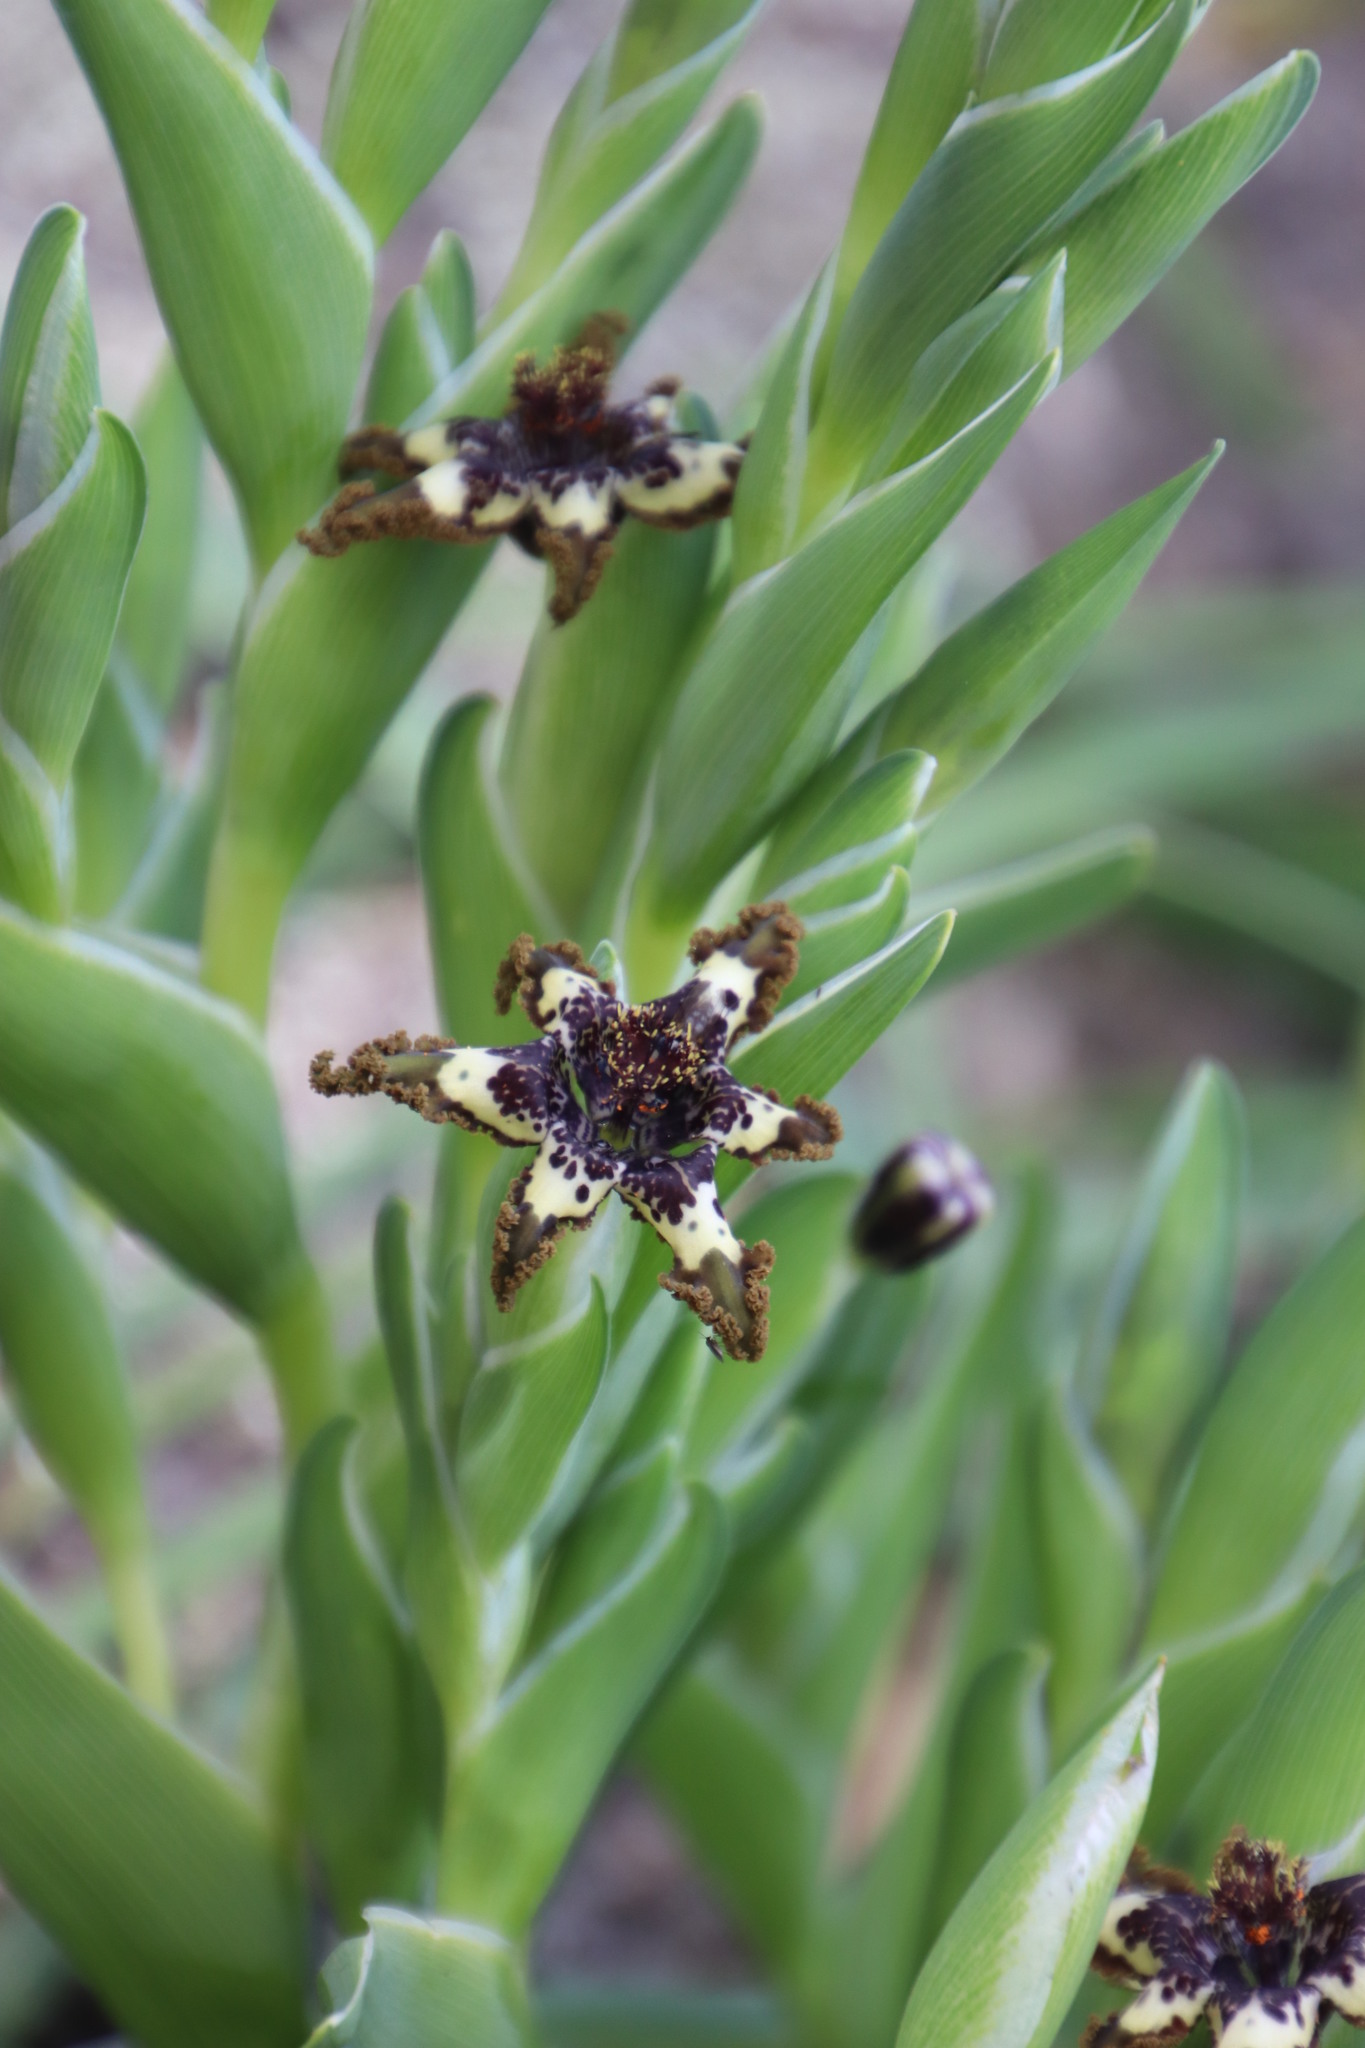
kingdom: Plantae
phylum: Tracheophyta
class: Liliopsida
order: Asparagales
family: Iridaceae
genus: Ferraria
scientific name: Ferraria crispa
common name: Black-flag
